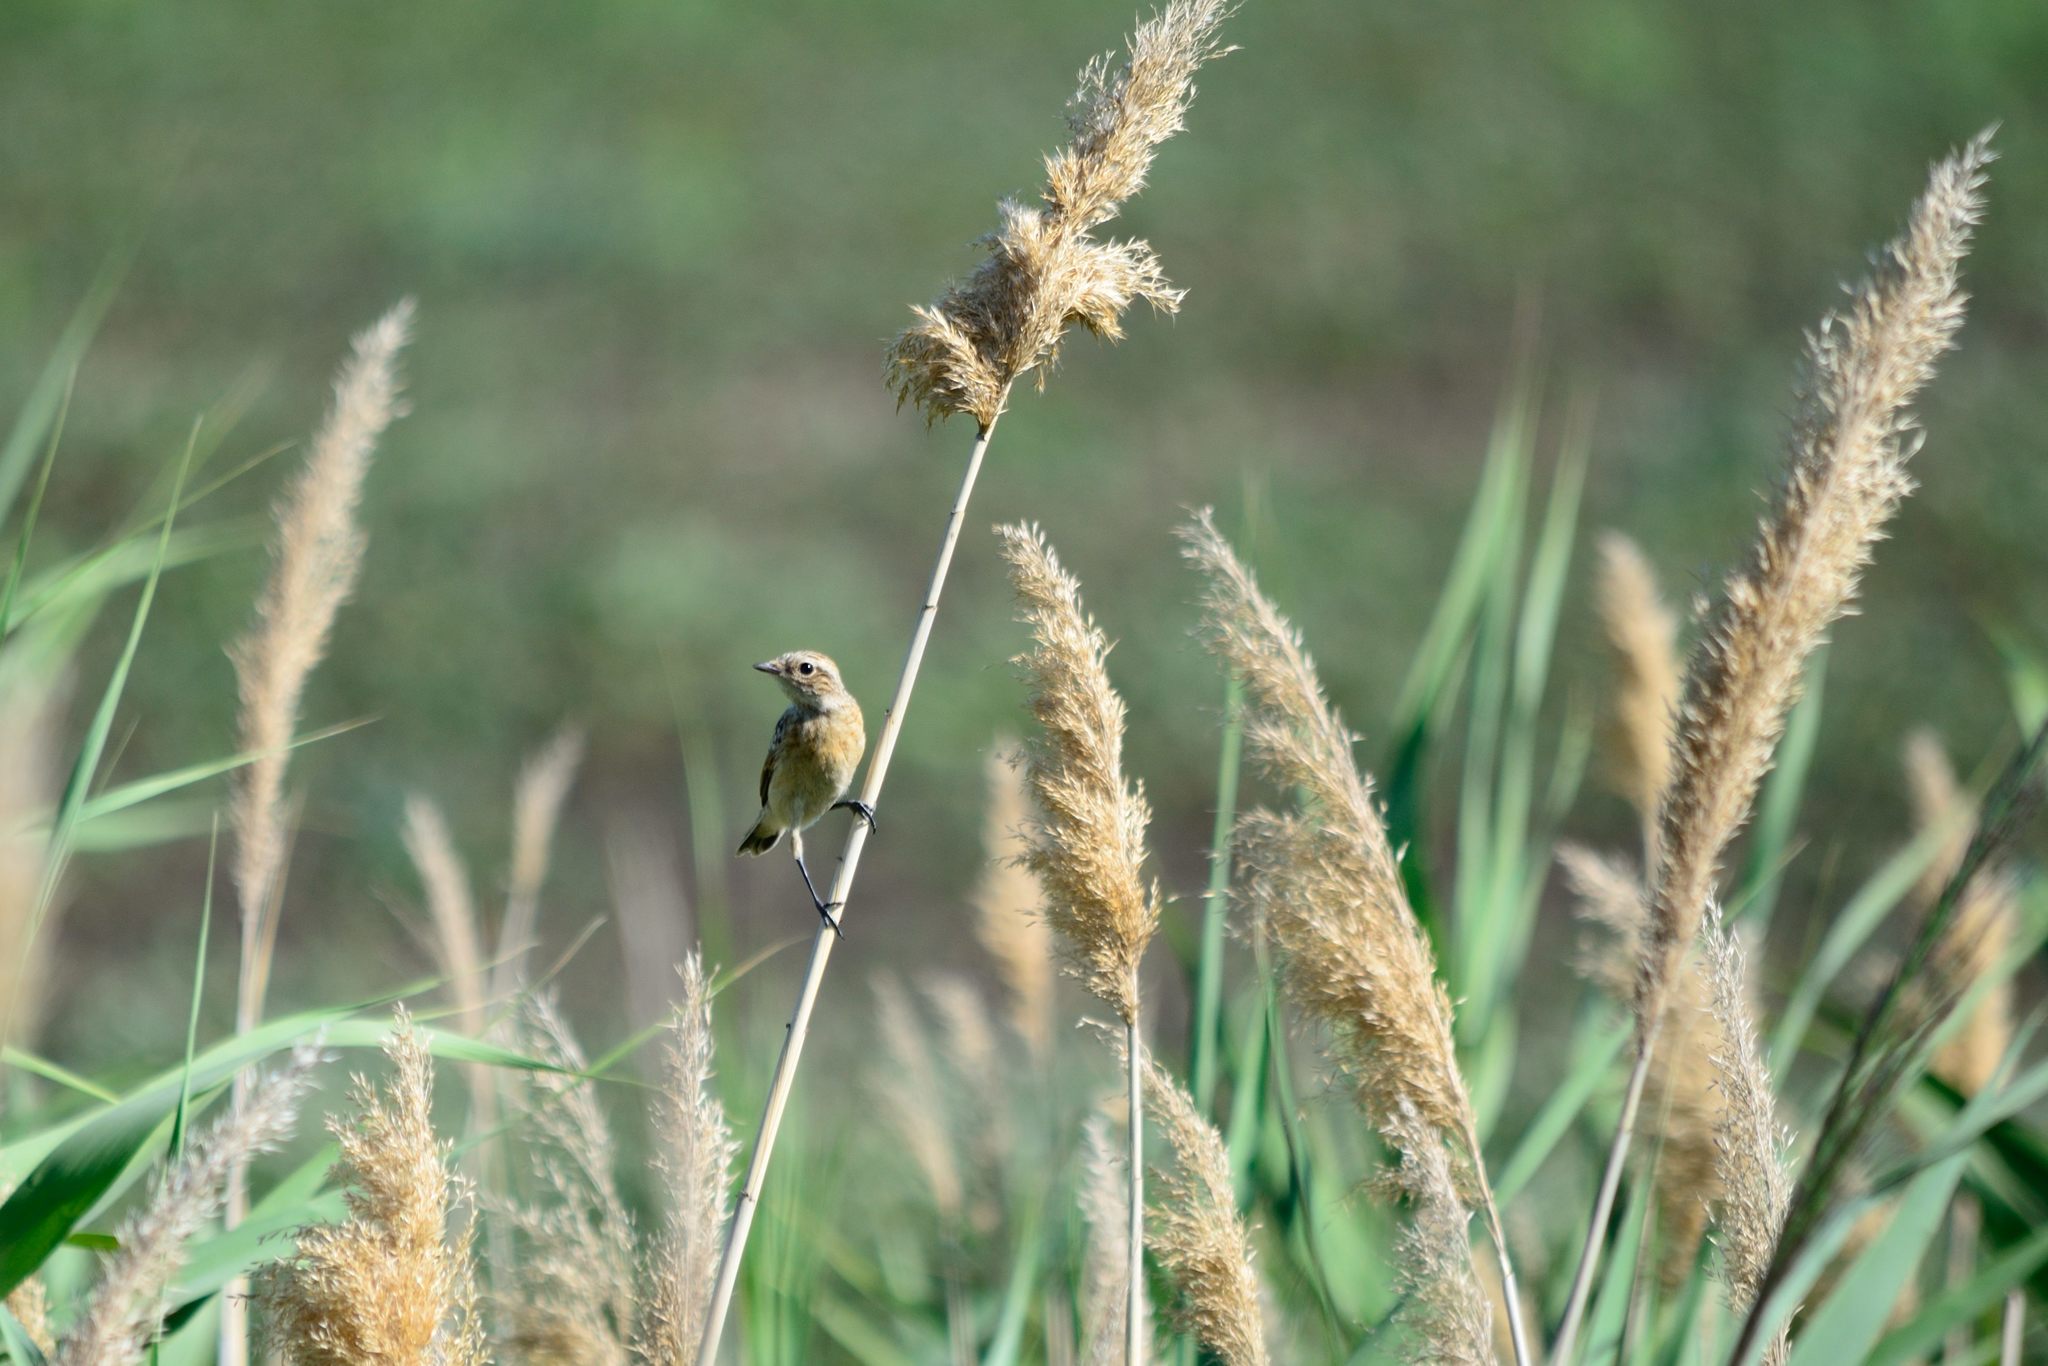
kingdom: Animalia
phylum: Chordata
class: Aves
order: Passeriformes
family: Muscicapidae
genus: Saxicola
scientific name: Saxicola rubetra
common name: Whinchat
